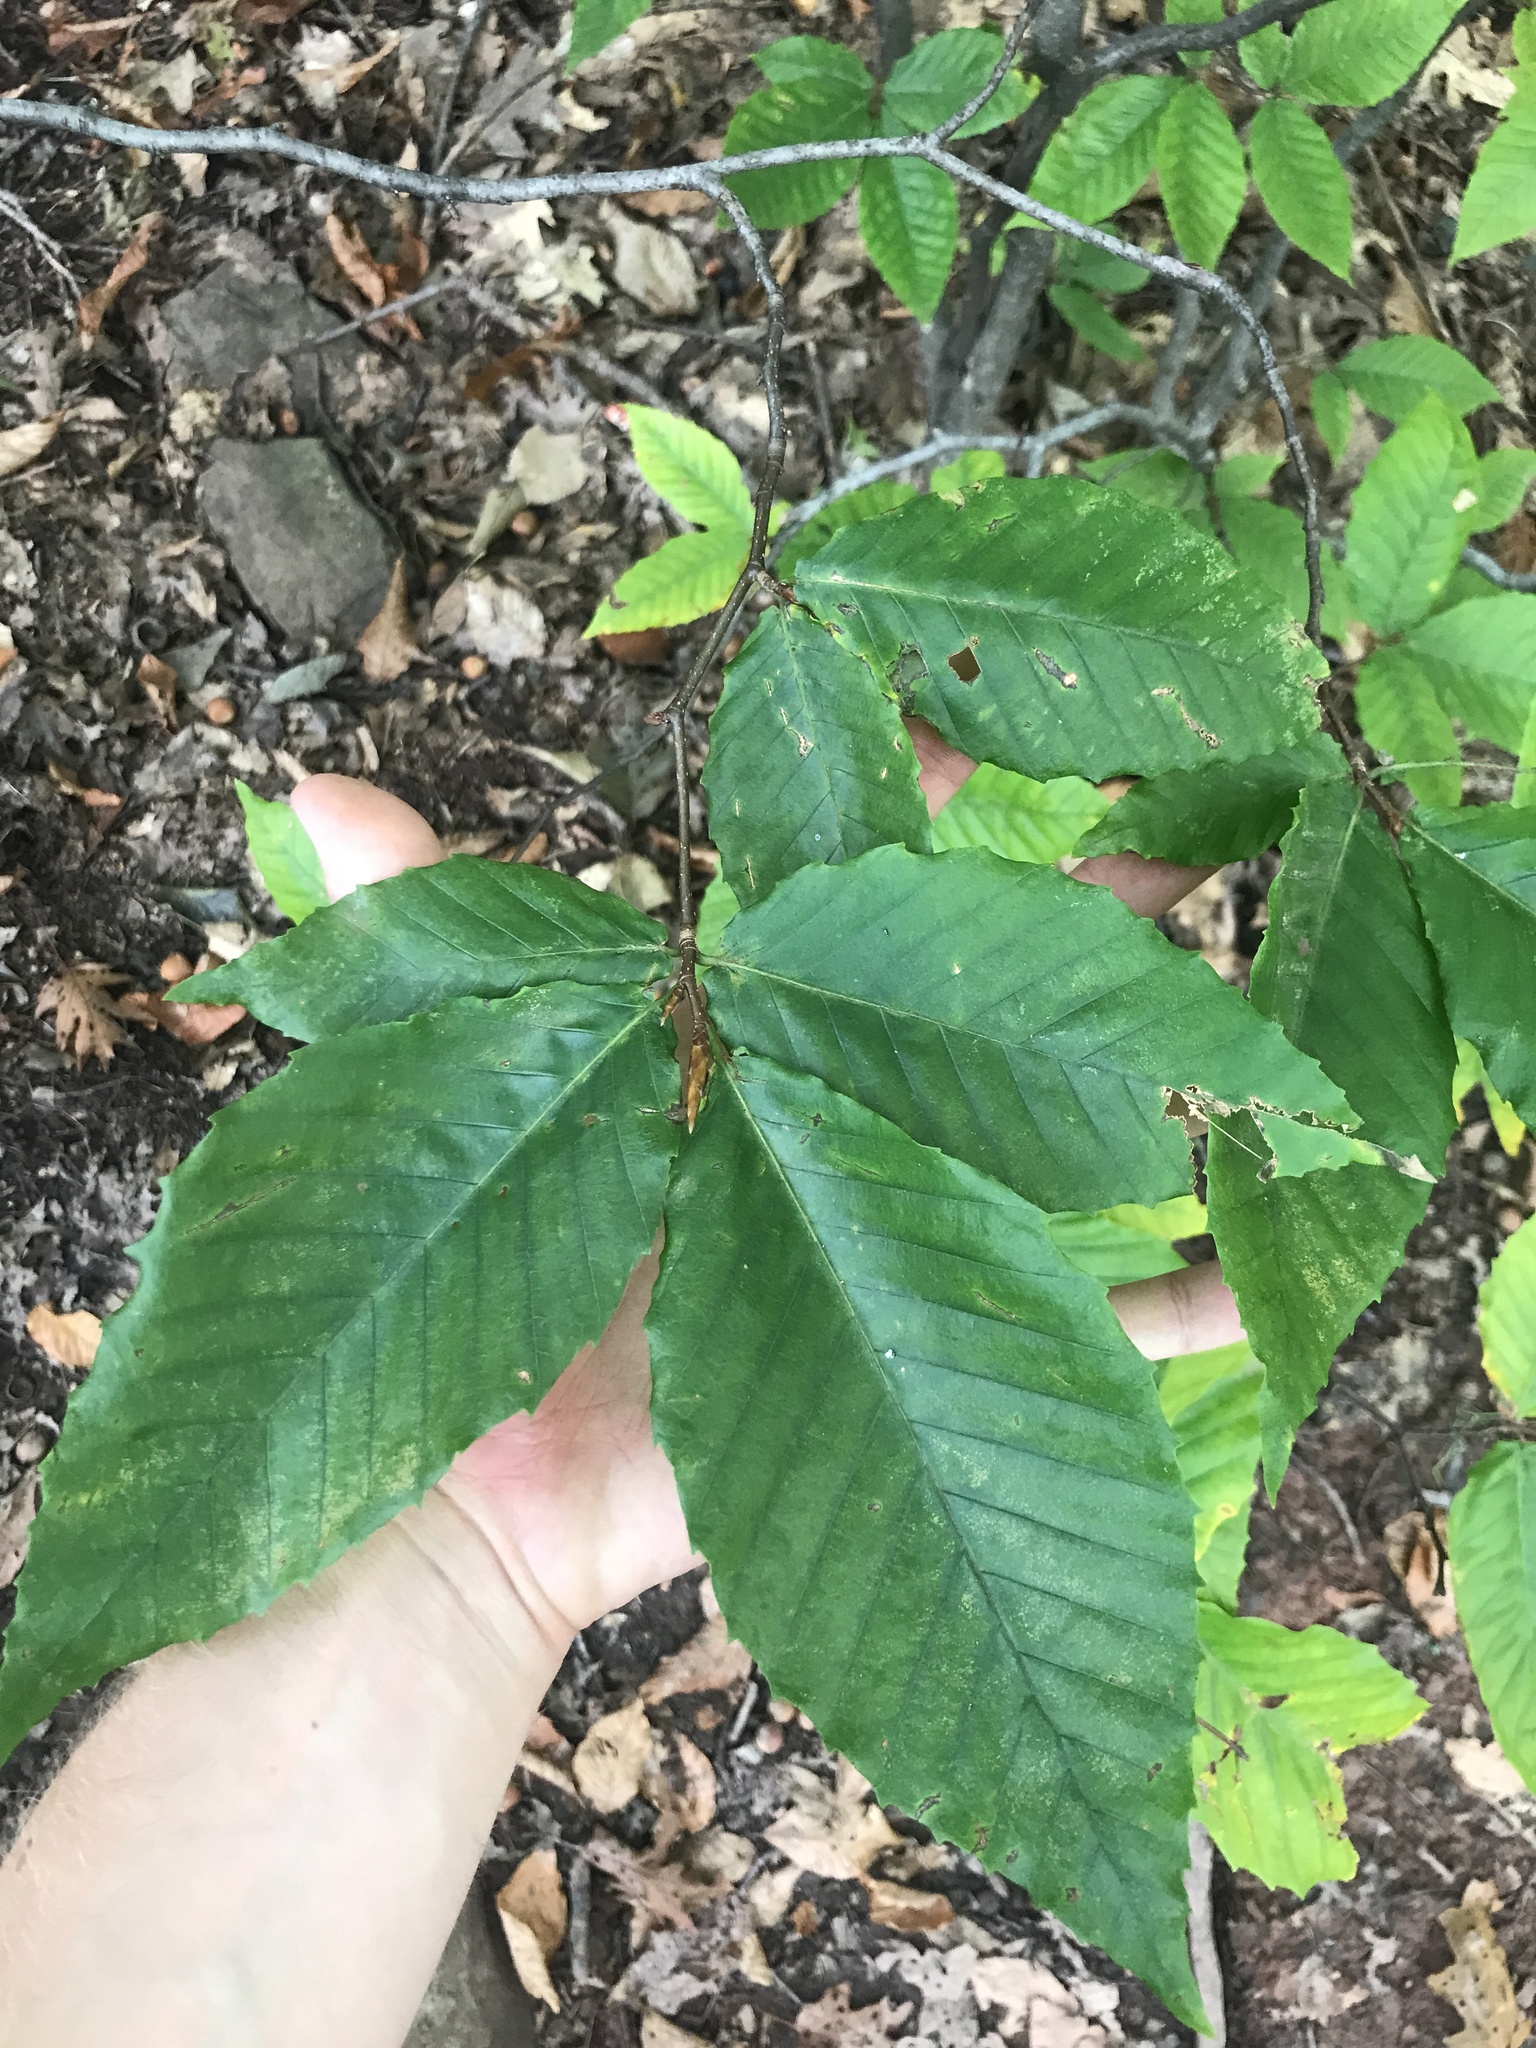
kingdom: Plantae
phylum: Tracheophyta
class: Magnoliopsida
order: Fagales
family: Fagaceae
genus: Fagus
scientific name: Fagus grandifolia
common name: American beech
